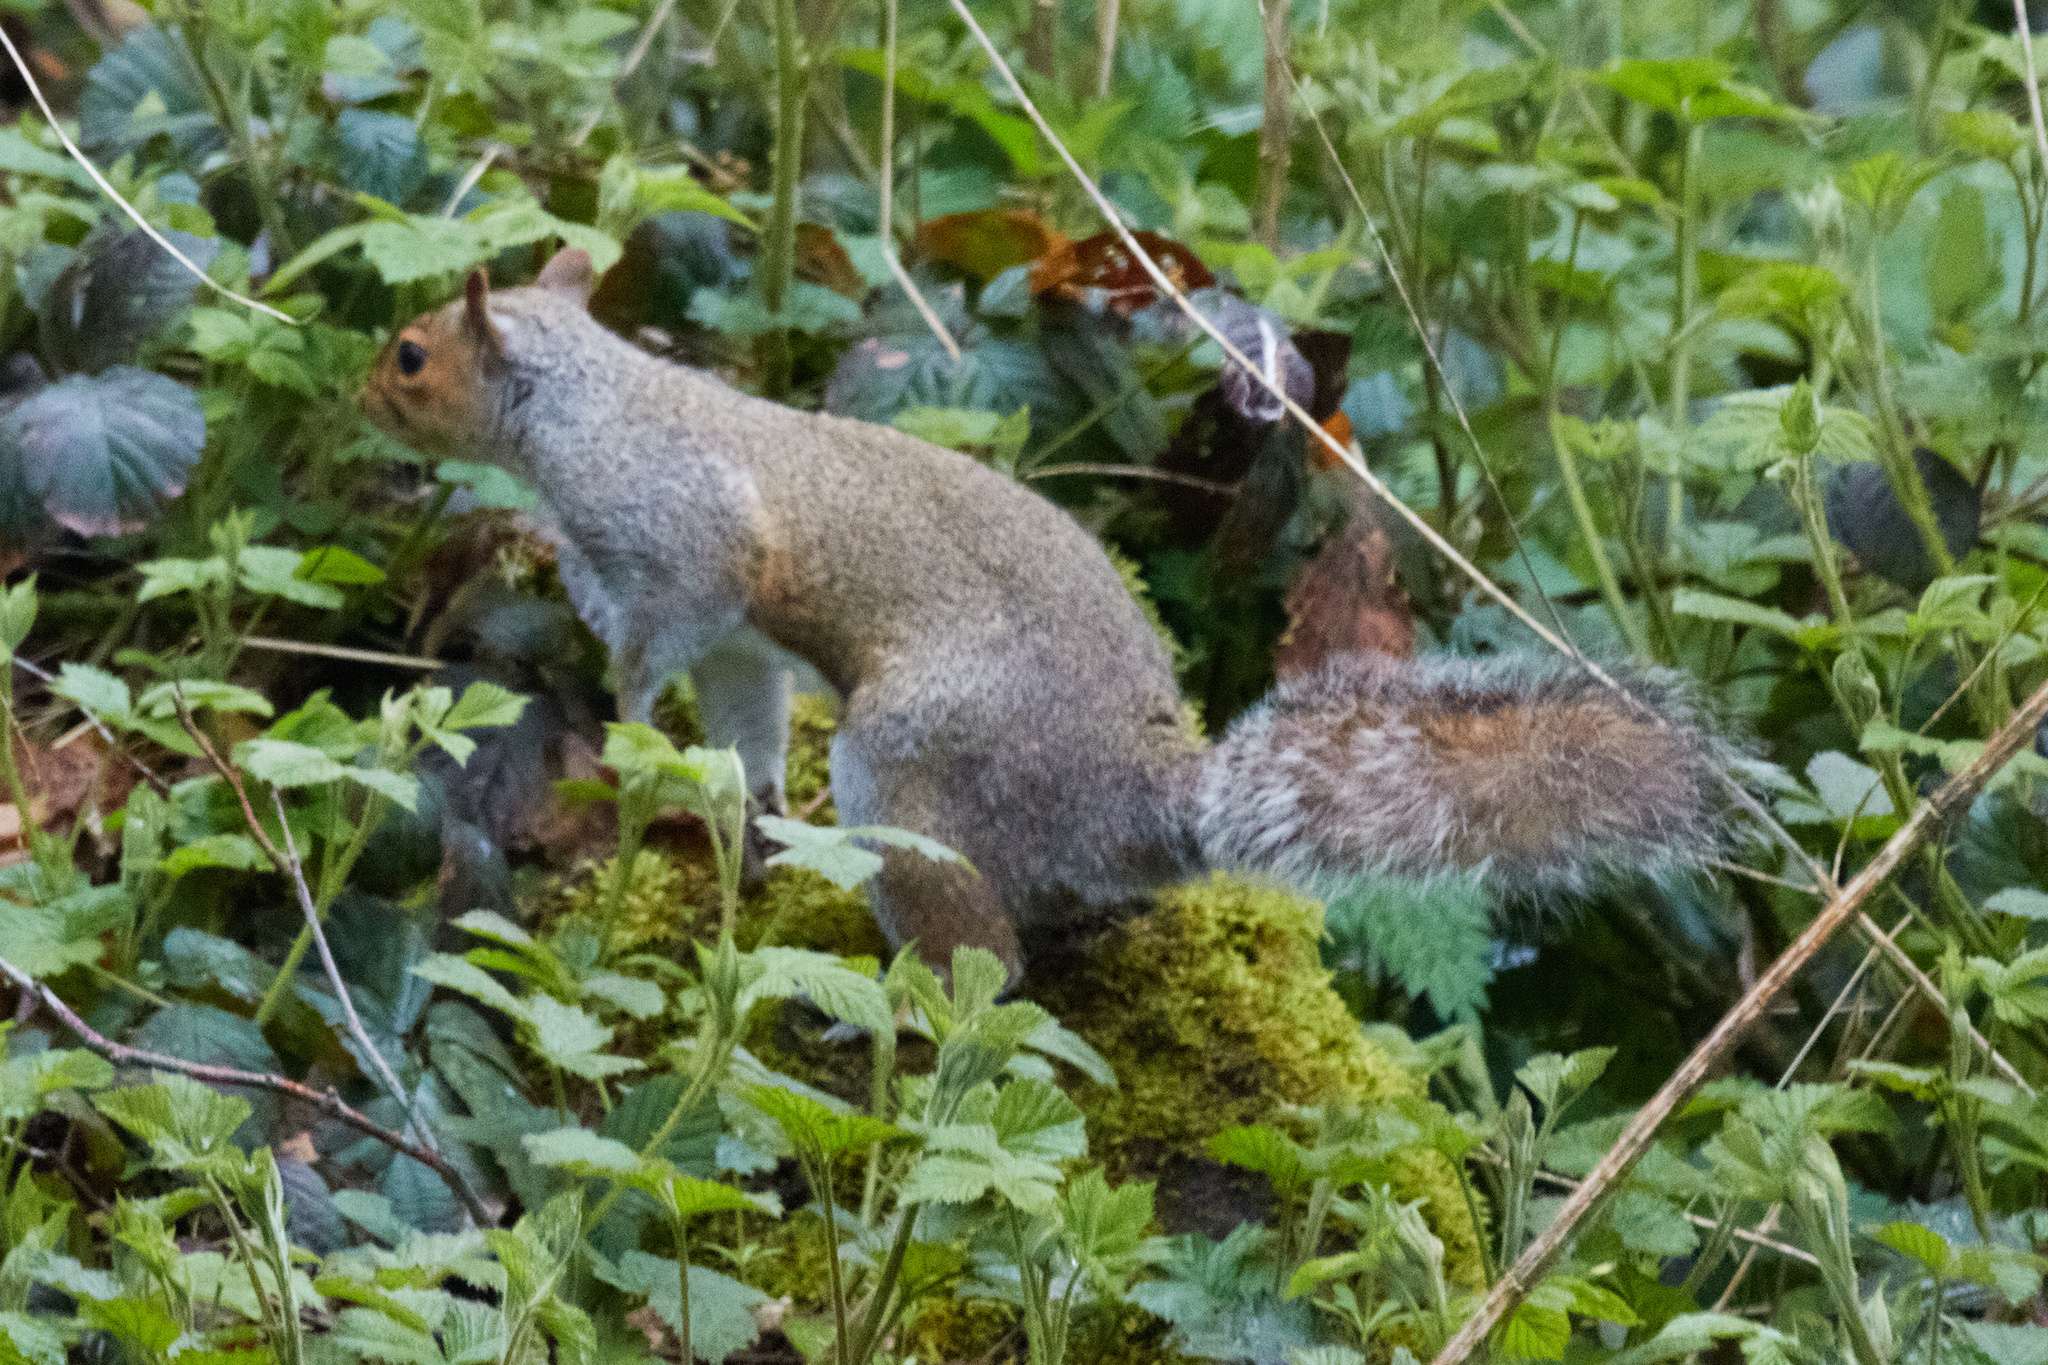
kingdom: Animalia
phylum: Chordata
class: Mammalia
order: Rodentia
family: Sciuridae
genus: Sciurus
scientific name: Sciurus carolinensis
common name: Eastern gray squirrel
